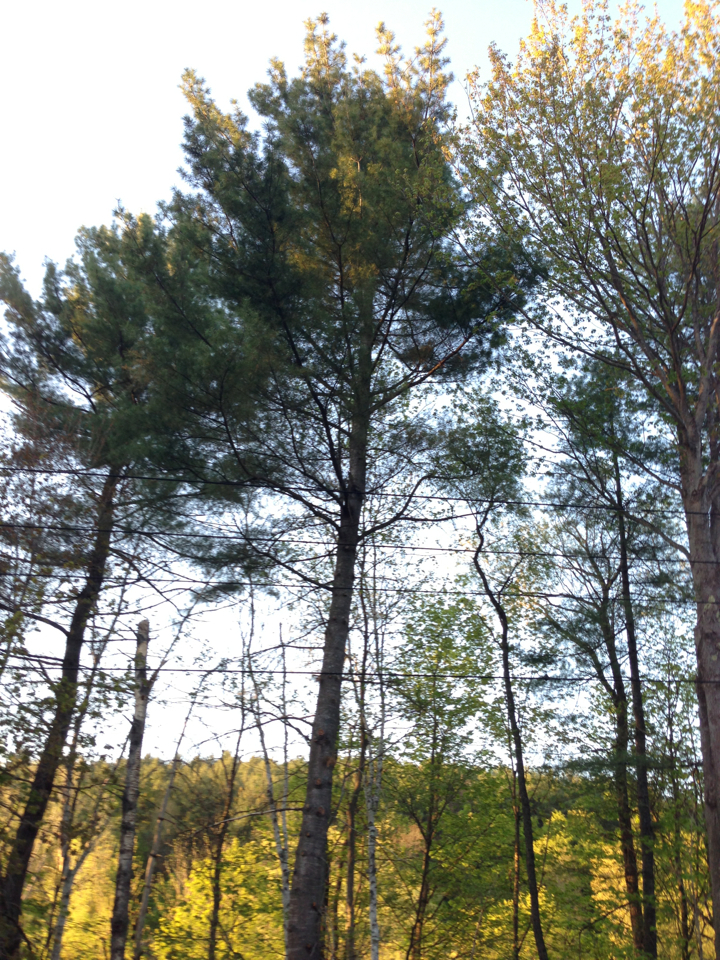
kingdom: Plantae
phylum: Tracheophyta
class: Pinopsida
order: Pinales
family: Pinaceae
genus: Pinus
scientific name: Pinus strobus
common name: Weymouth pine
